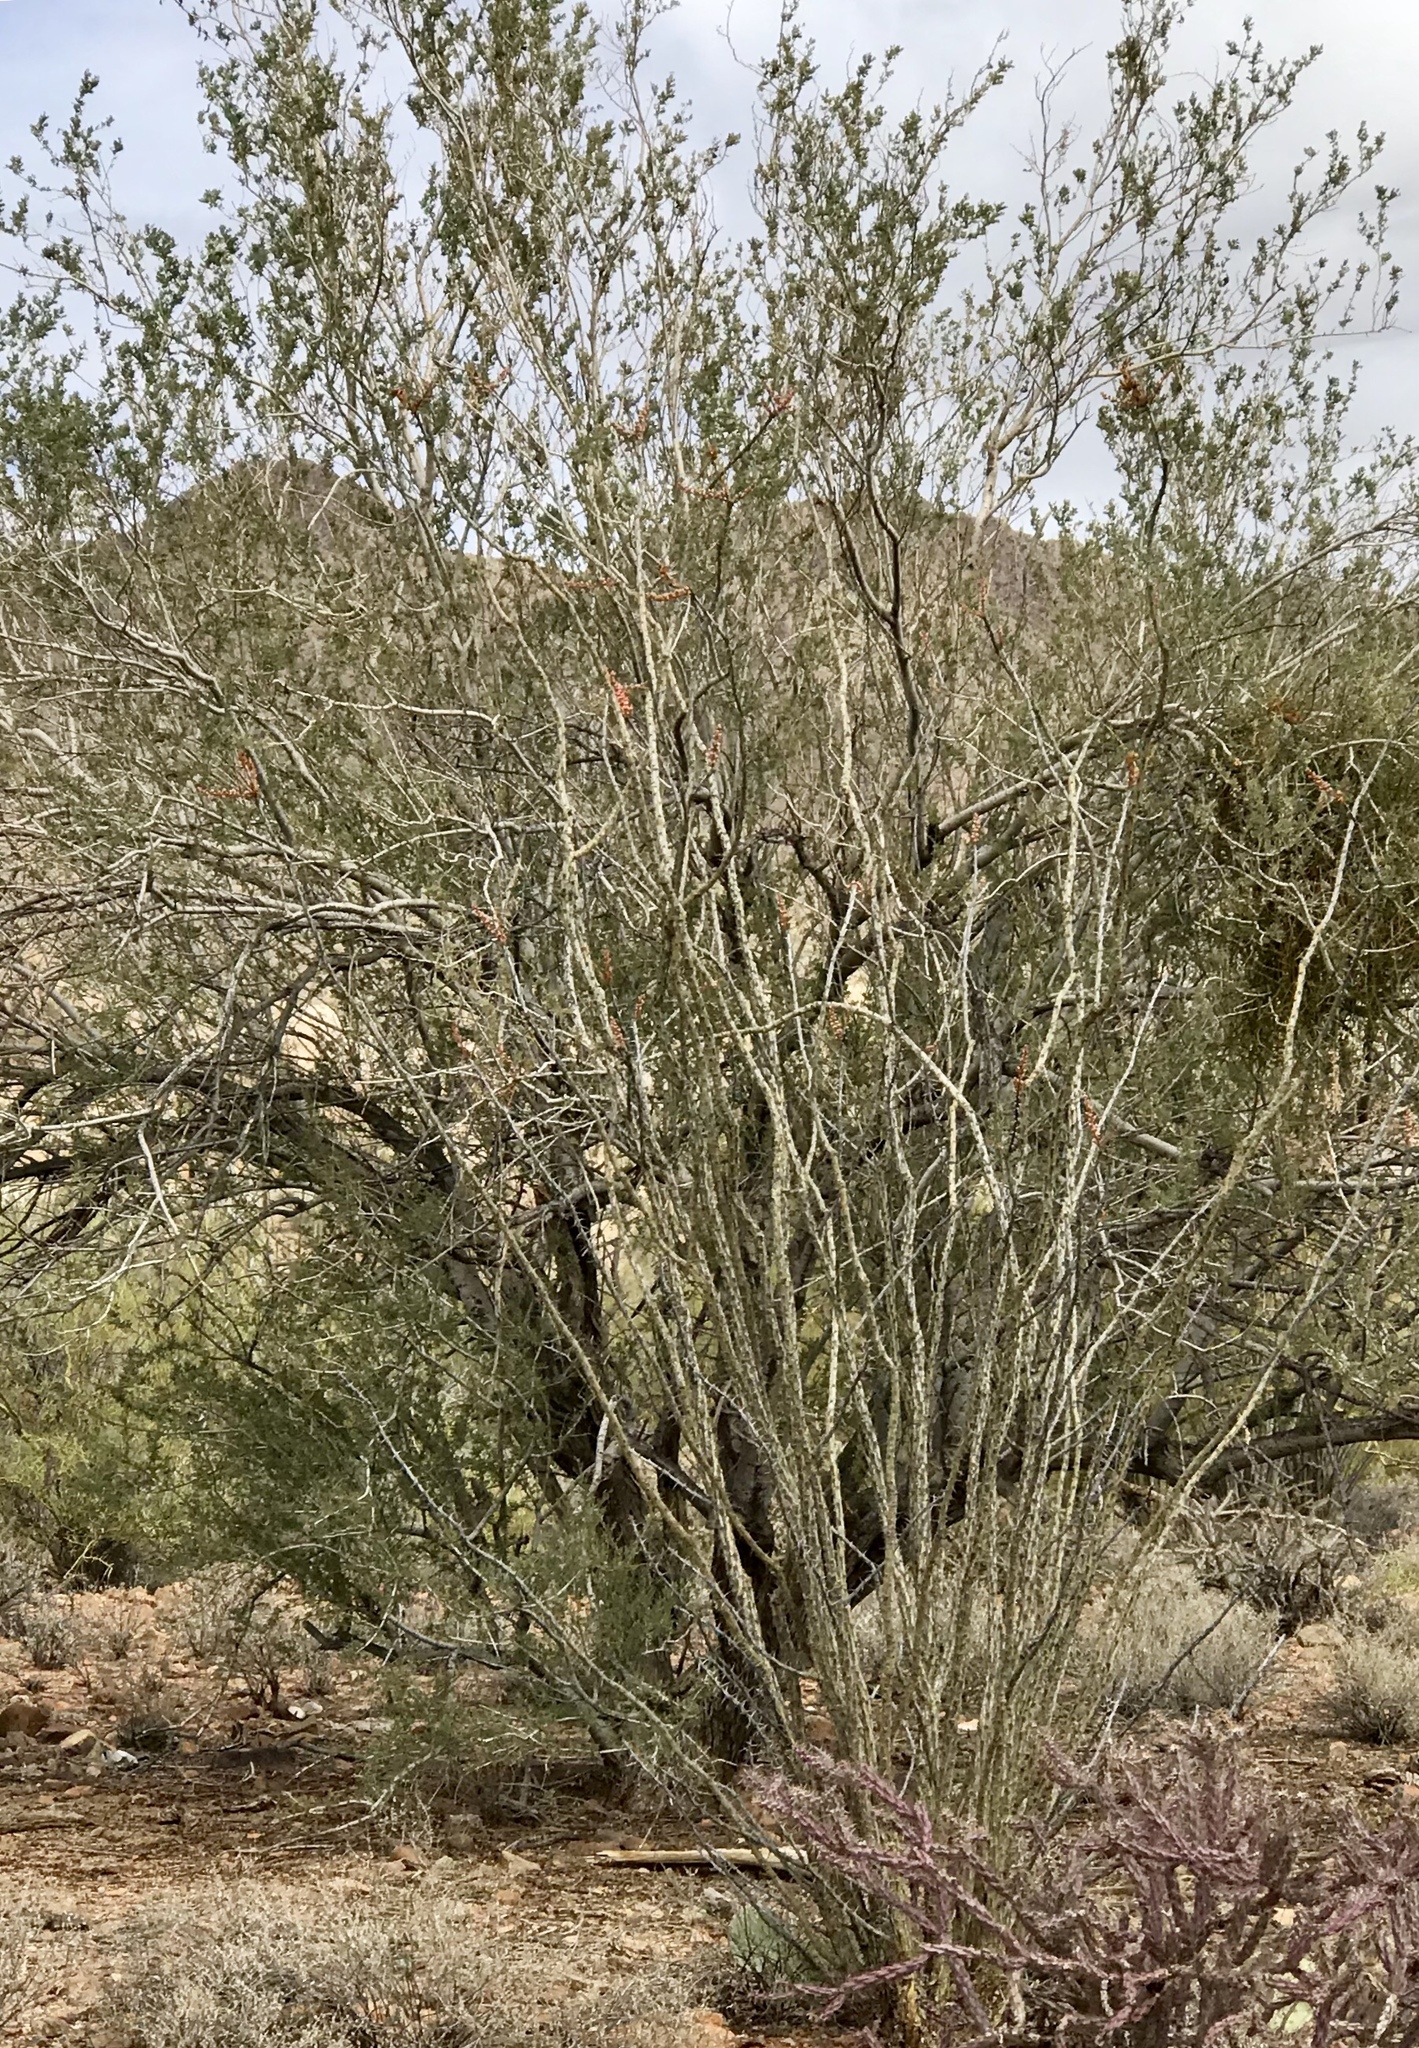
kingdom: Plantae
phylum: Tracheophyta
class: Magnoliopsida
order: Ericales
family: Fouquieriaceae
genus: Fouquieria
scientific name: Fouquieria splendens
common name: Vine-cactus
